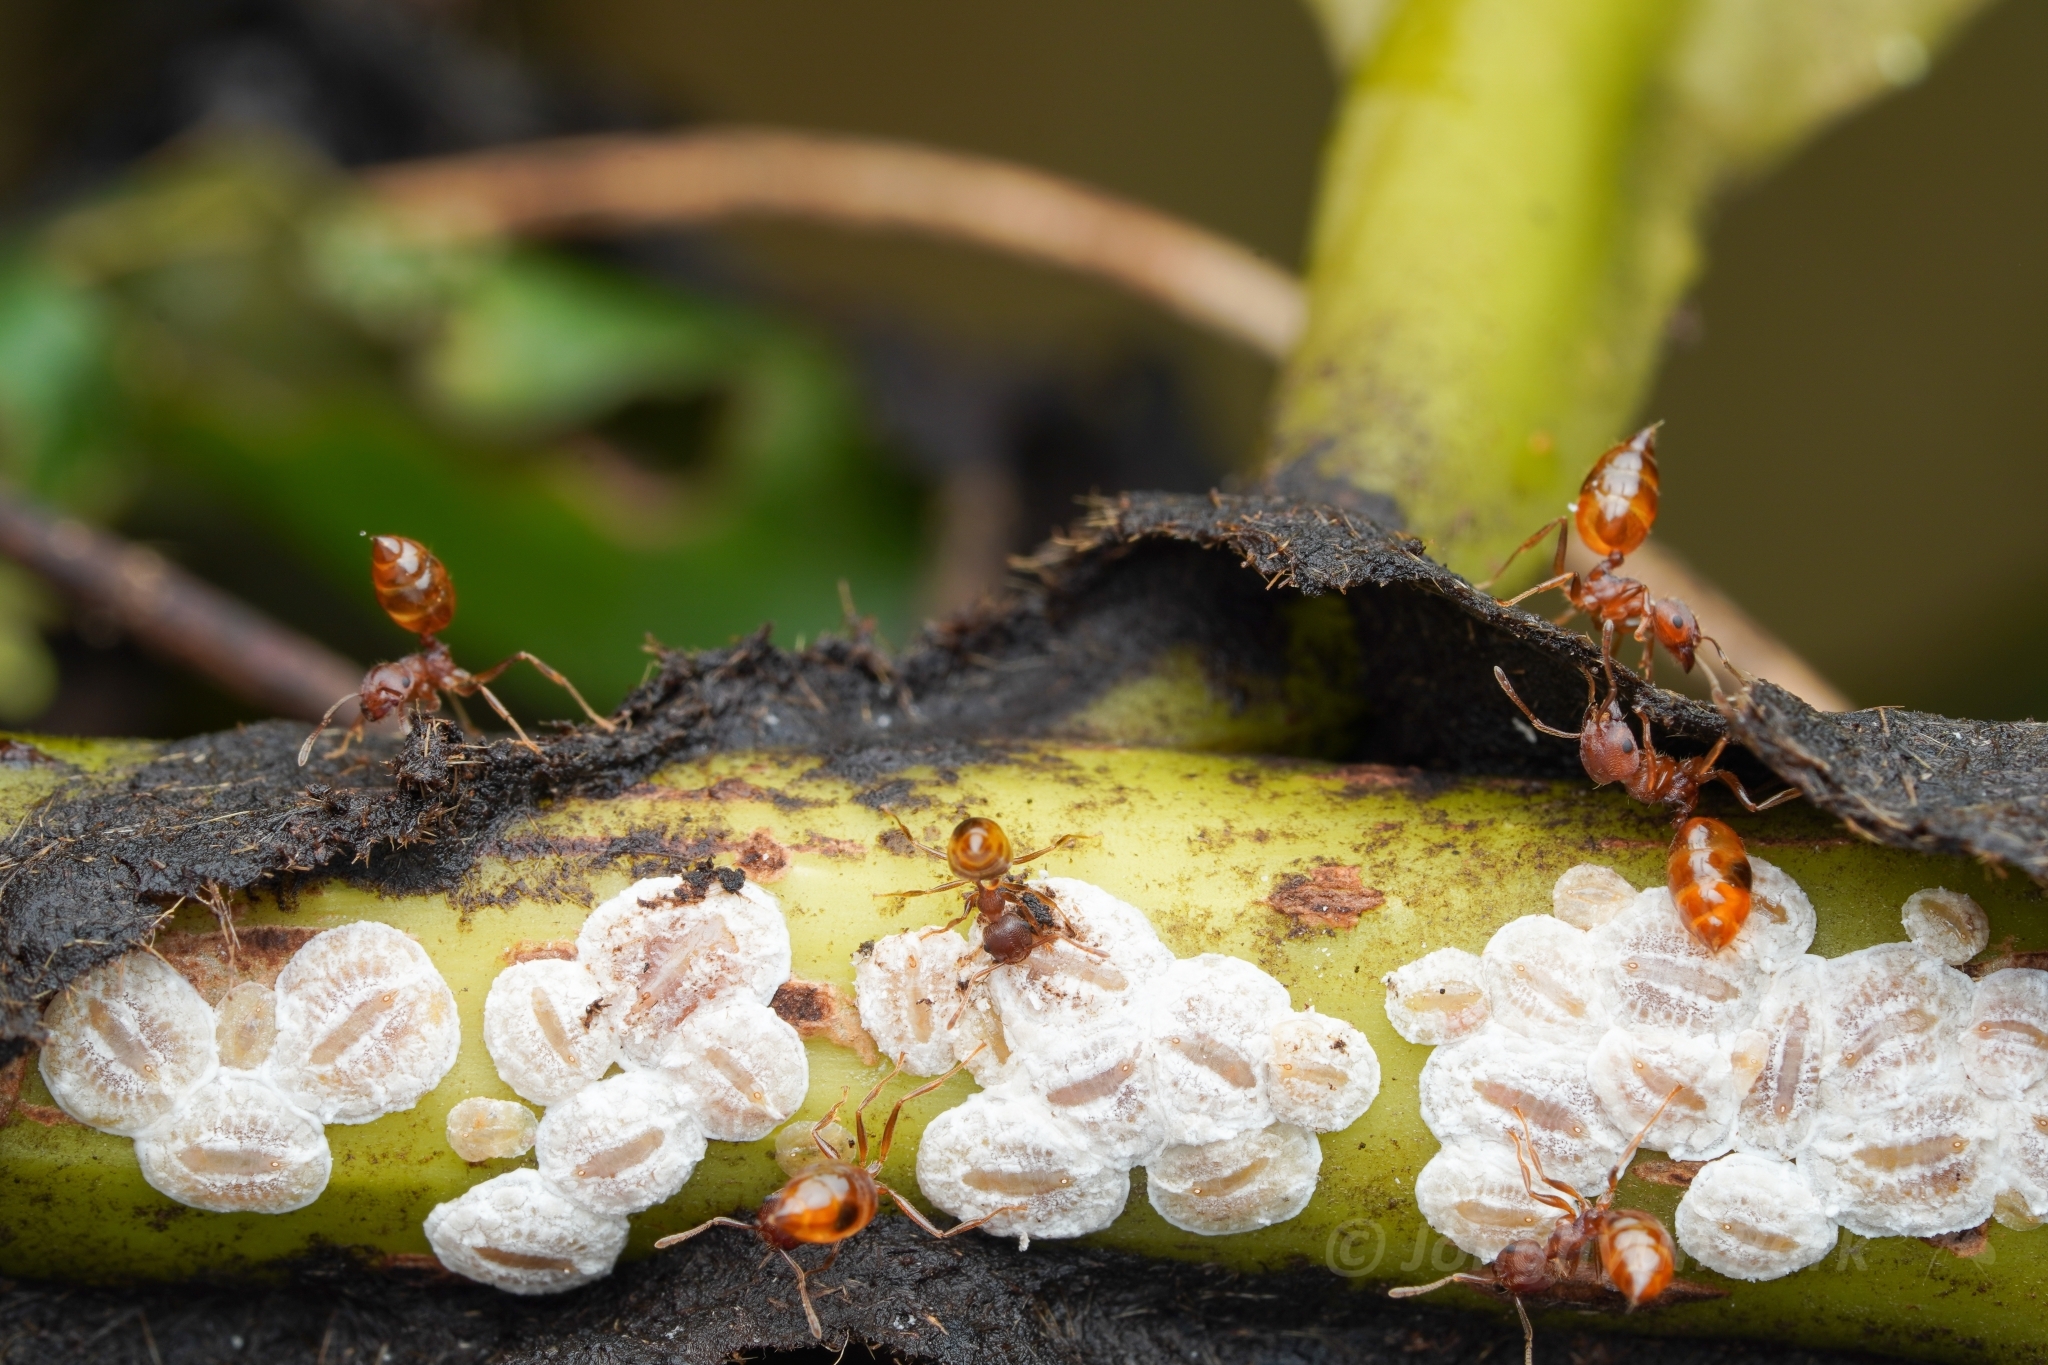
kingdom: Animalia
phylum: Arthropoda
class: Insecta
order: Hymenoptera
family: Formicidae
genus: Crematogaster
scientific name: Crematogaster rogenhoferi
